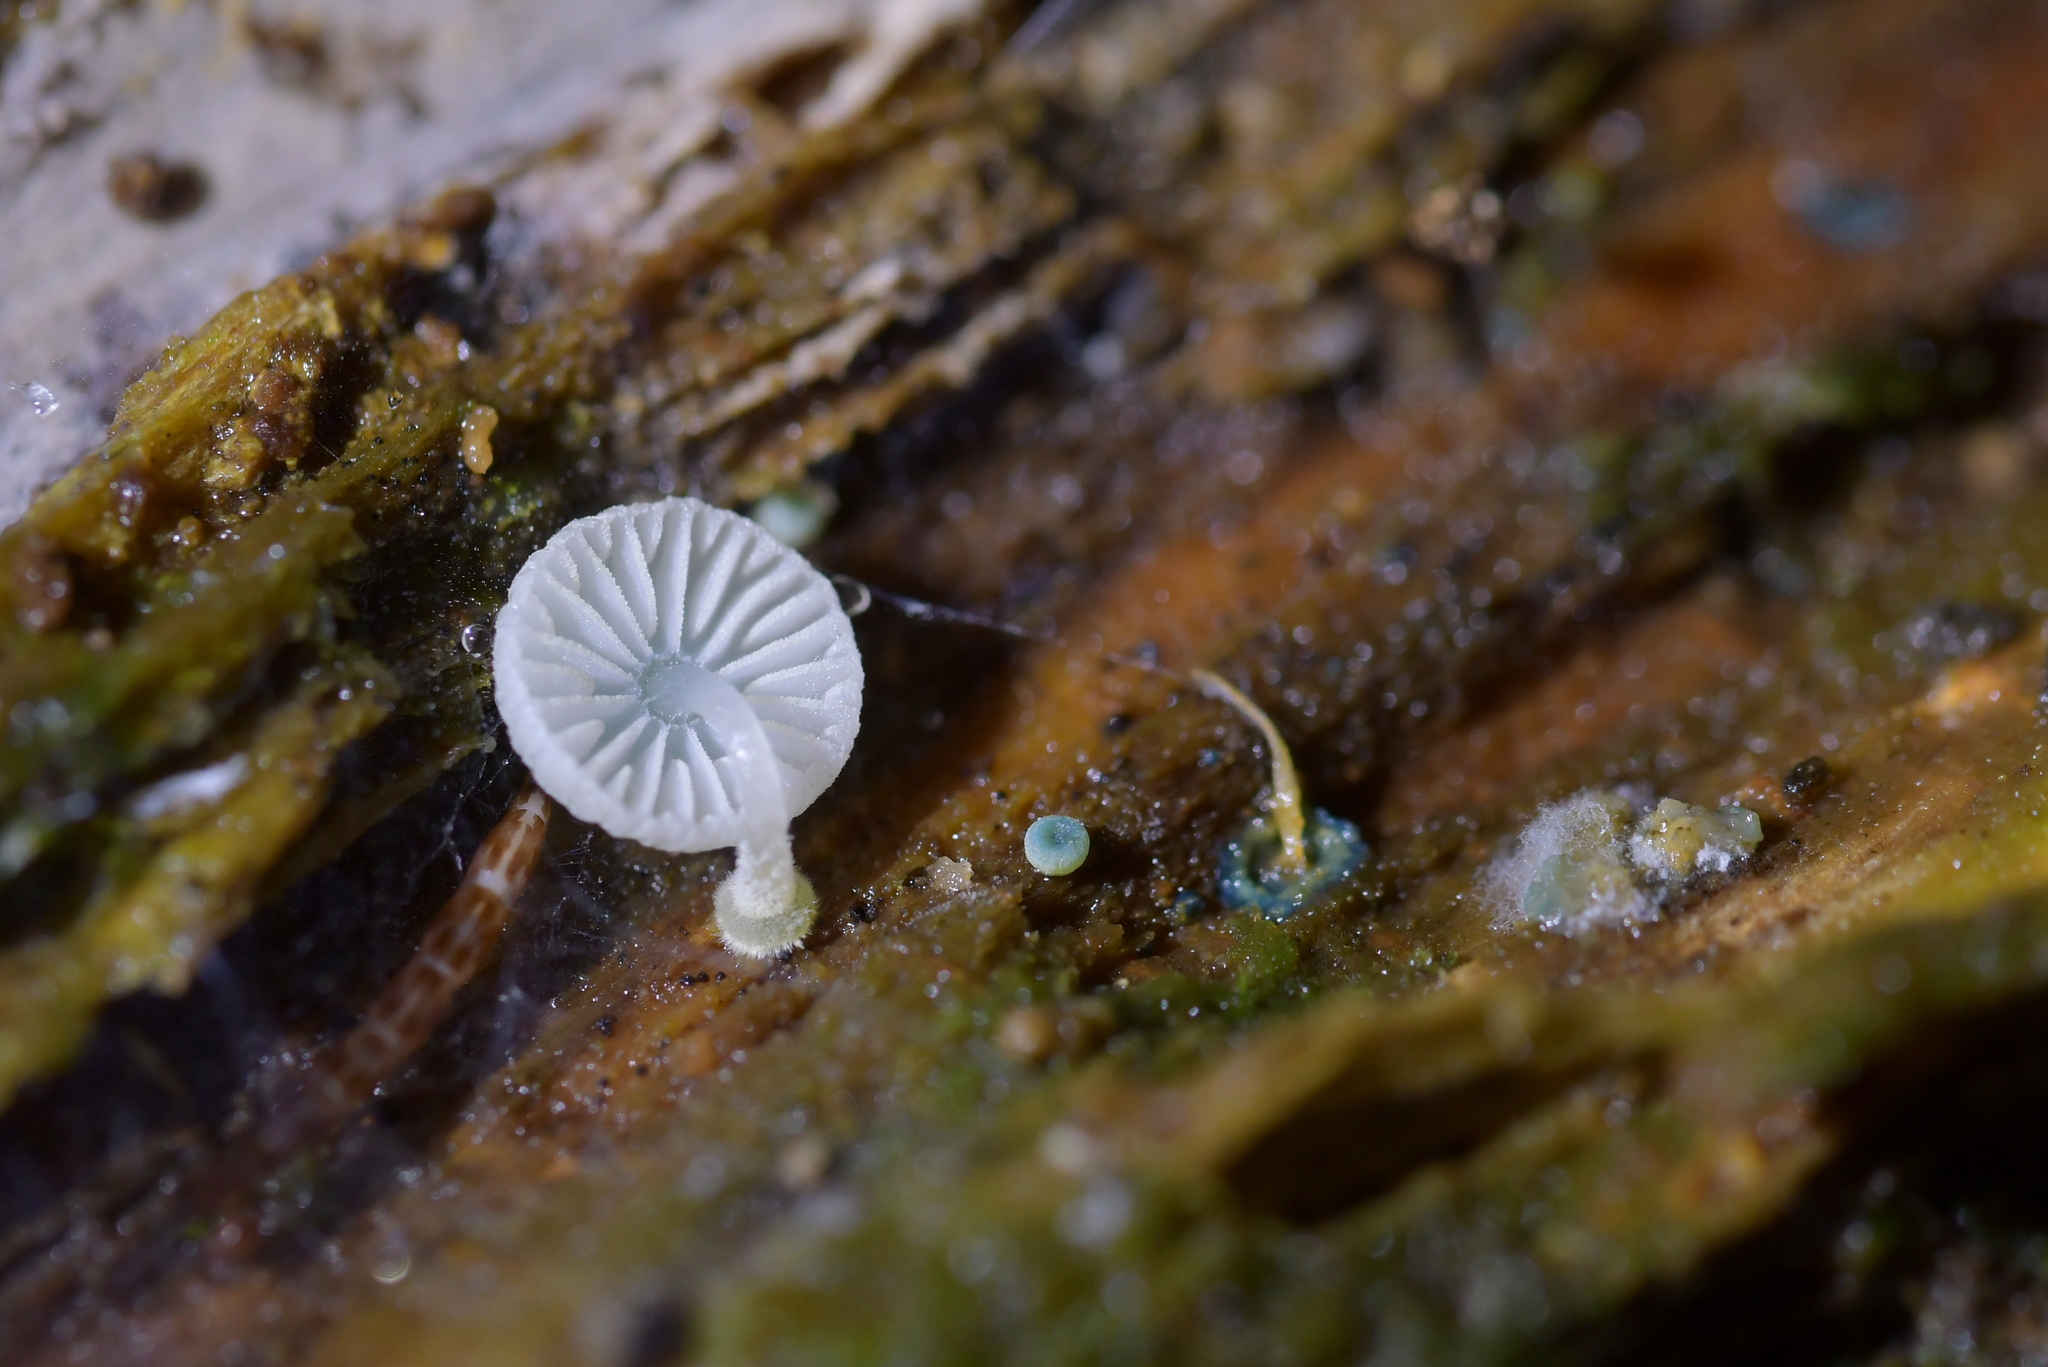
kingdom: Fungi
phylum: Basidiomycota
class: Agaricomycetes
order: Agaricales
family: Mycenaceae
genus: Mycena
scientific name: Mycena interrupta
